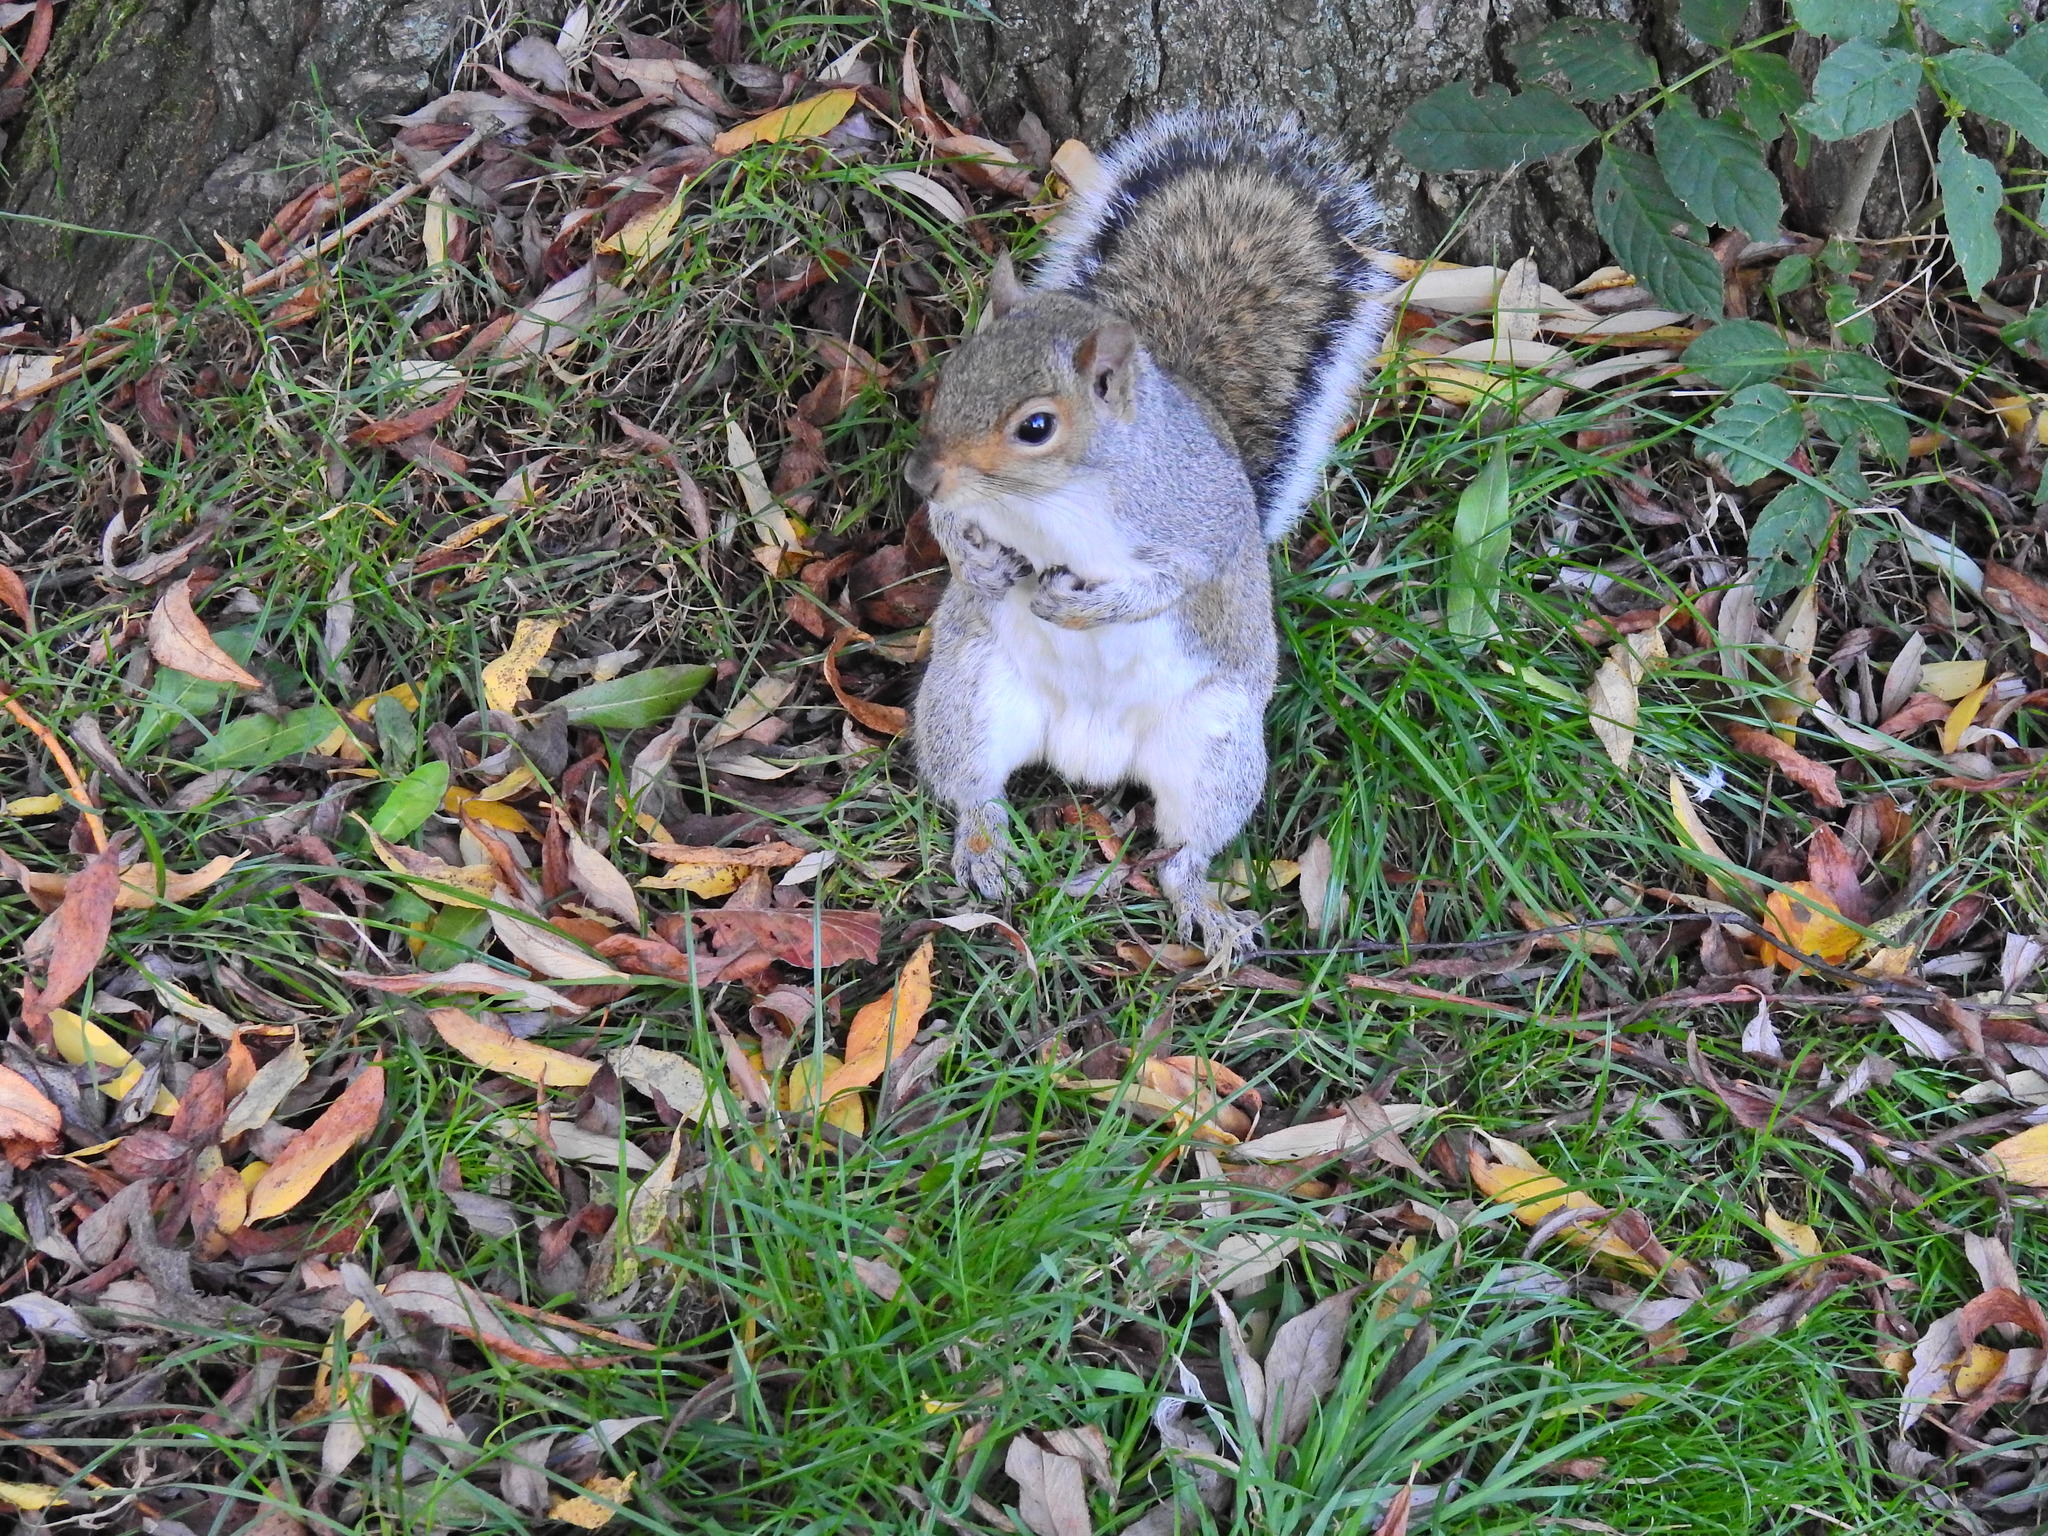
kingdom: Animalia
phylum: Chordata
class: Mammalia
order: Rodentia
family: Sciuridae
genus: Sciurus
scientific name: Sciurus carolinensis
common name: Eastern gray squirrel
